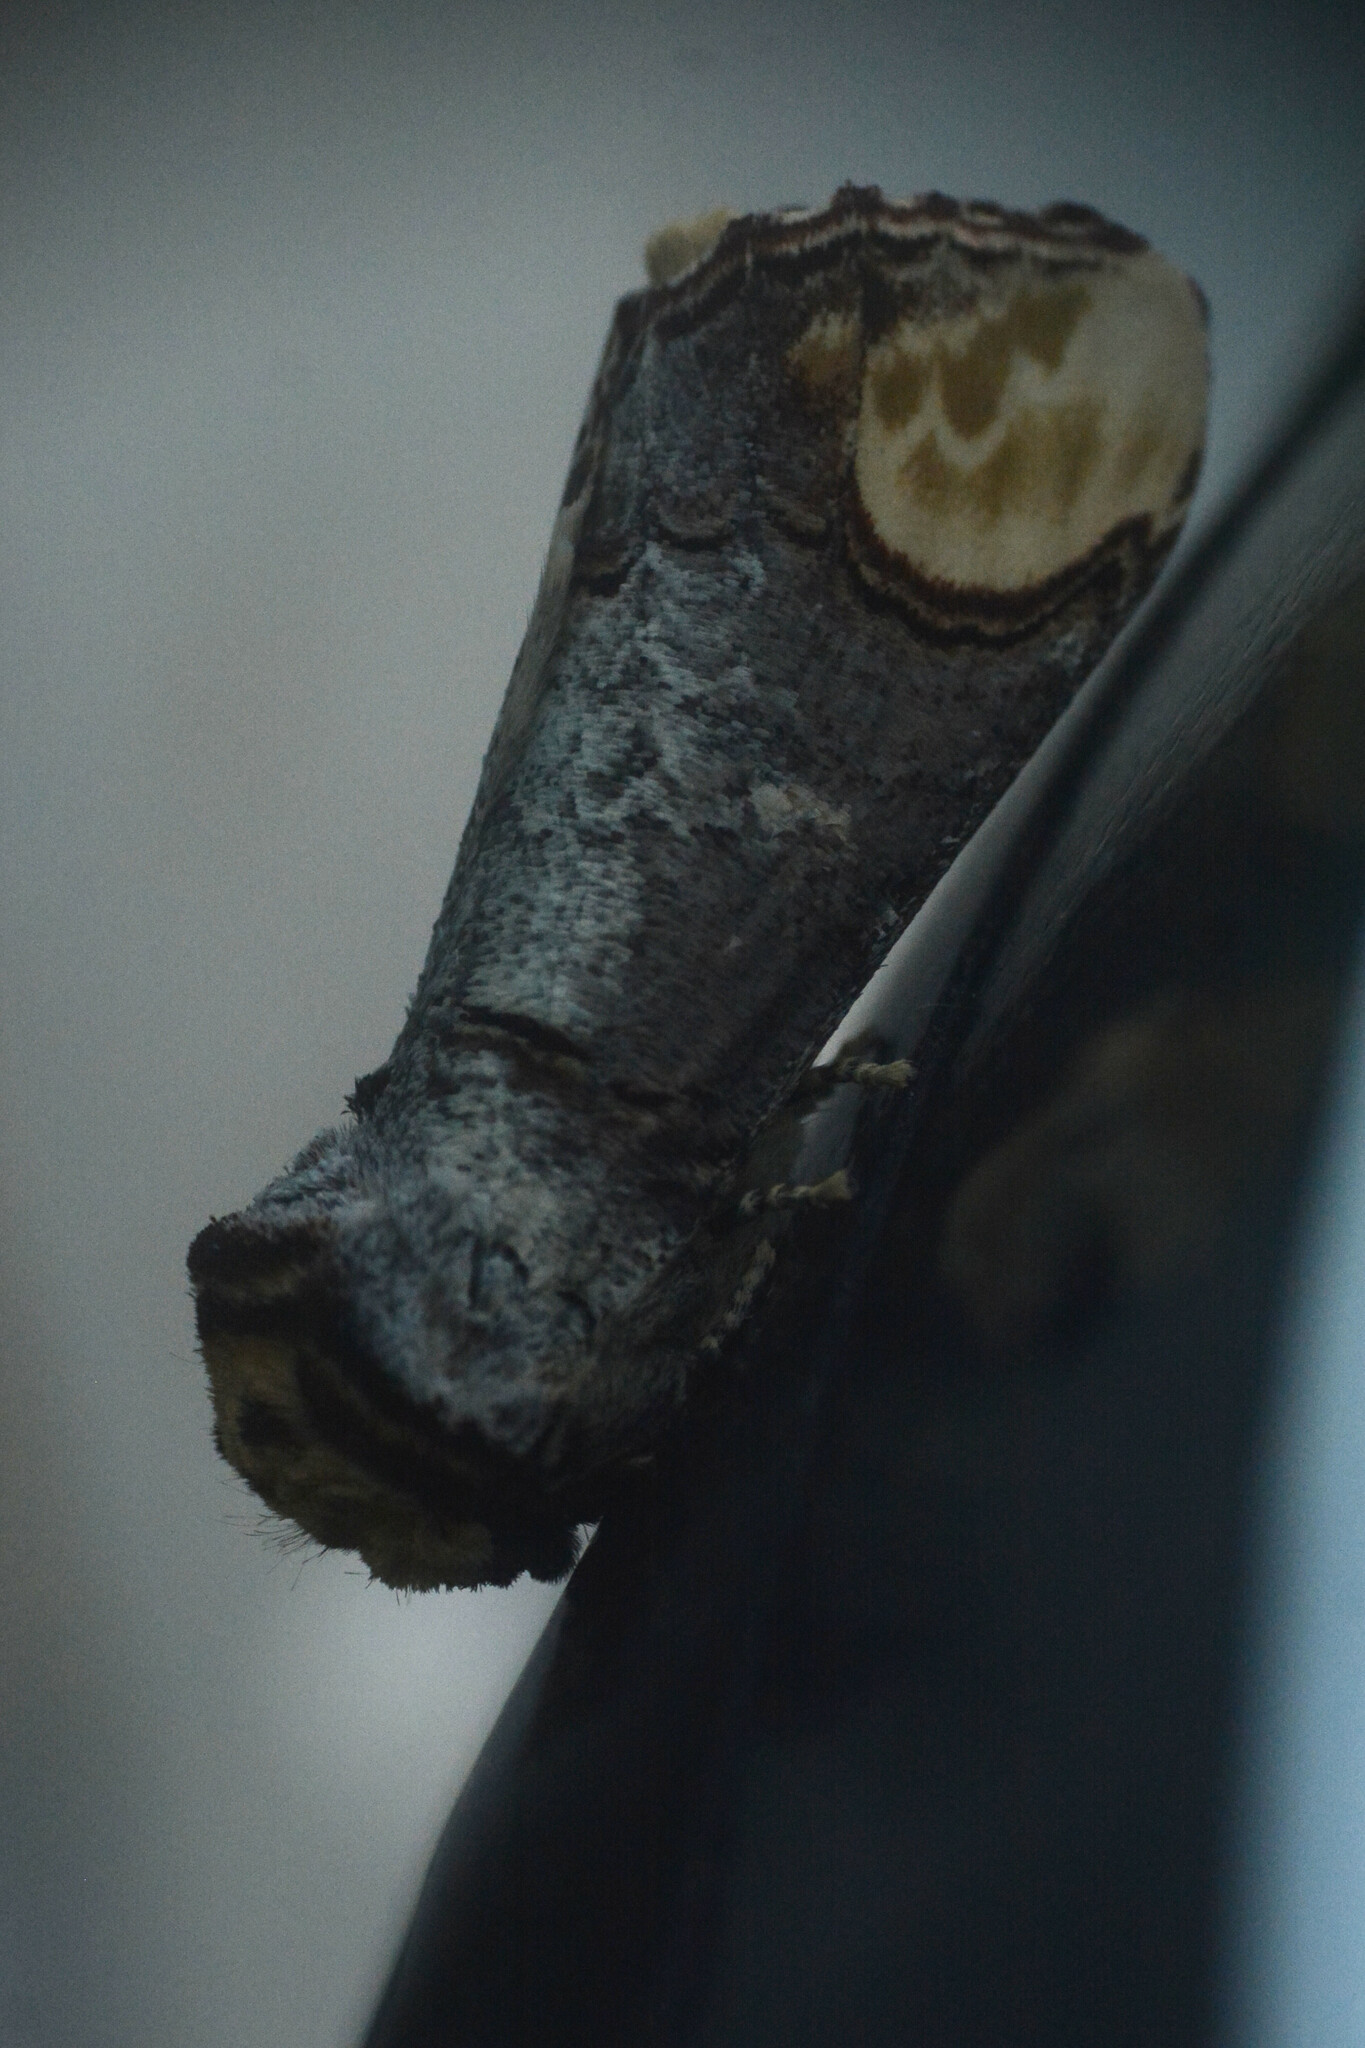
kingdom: Animalia
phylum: Arthropoda
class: Insecta
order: Lepidoptera
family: Notodontidae
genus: Phalera
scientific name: Phalera bucephala
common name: Buff-tip
